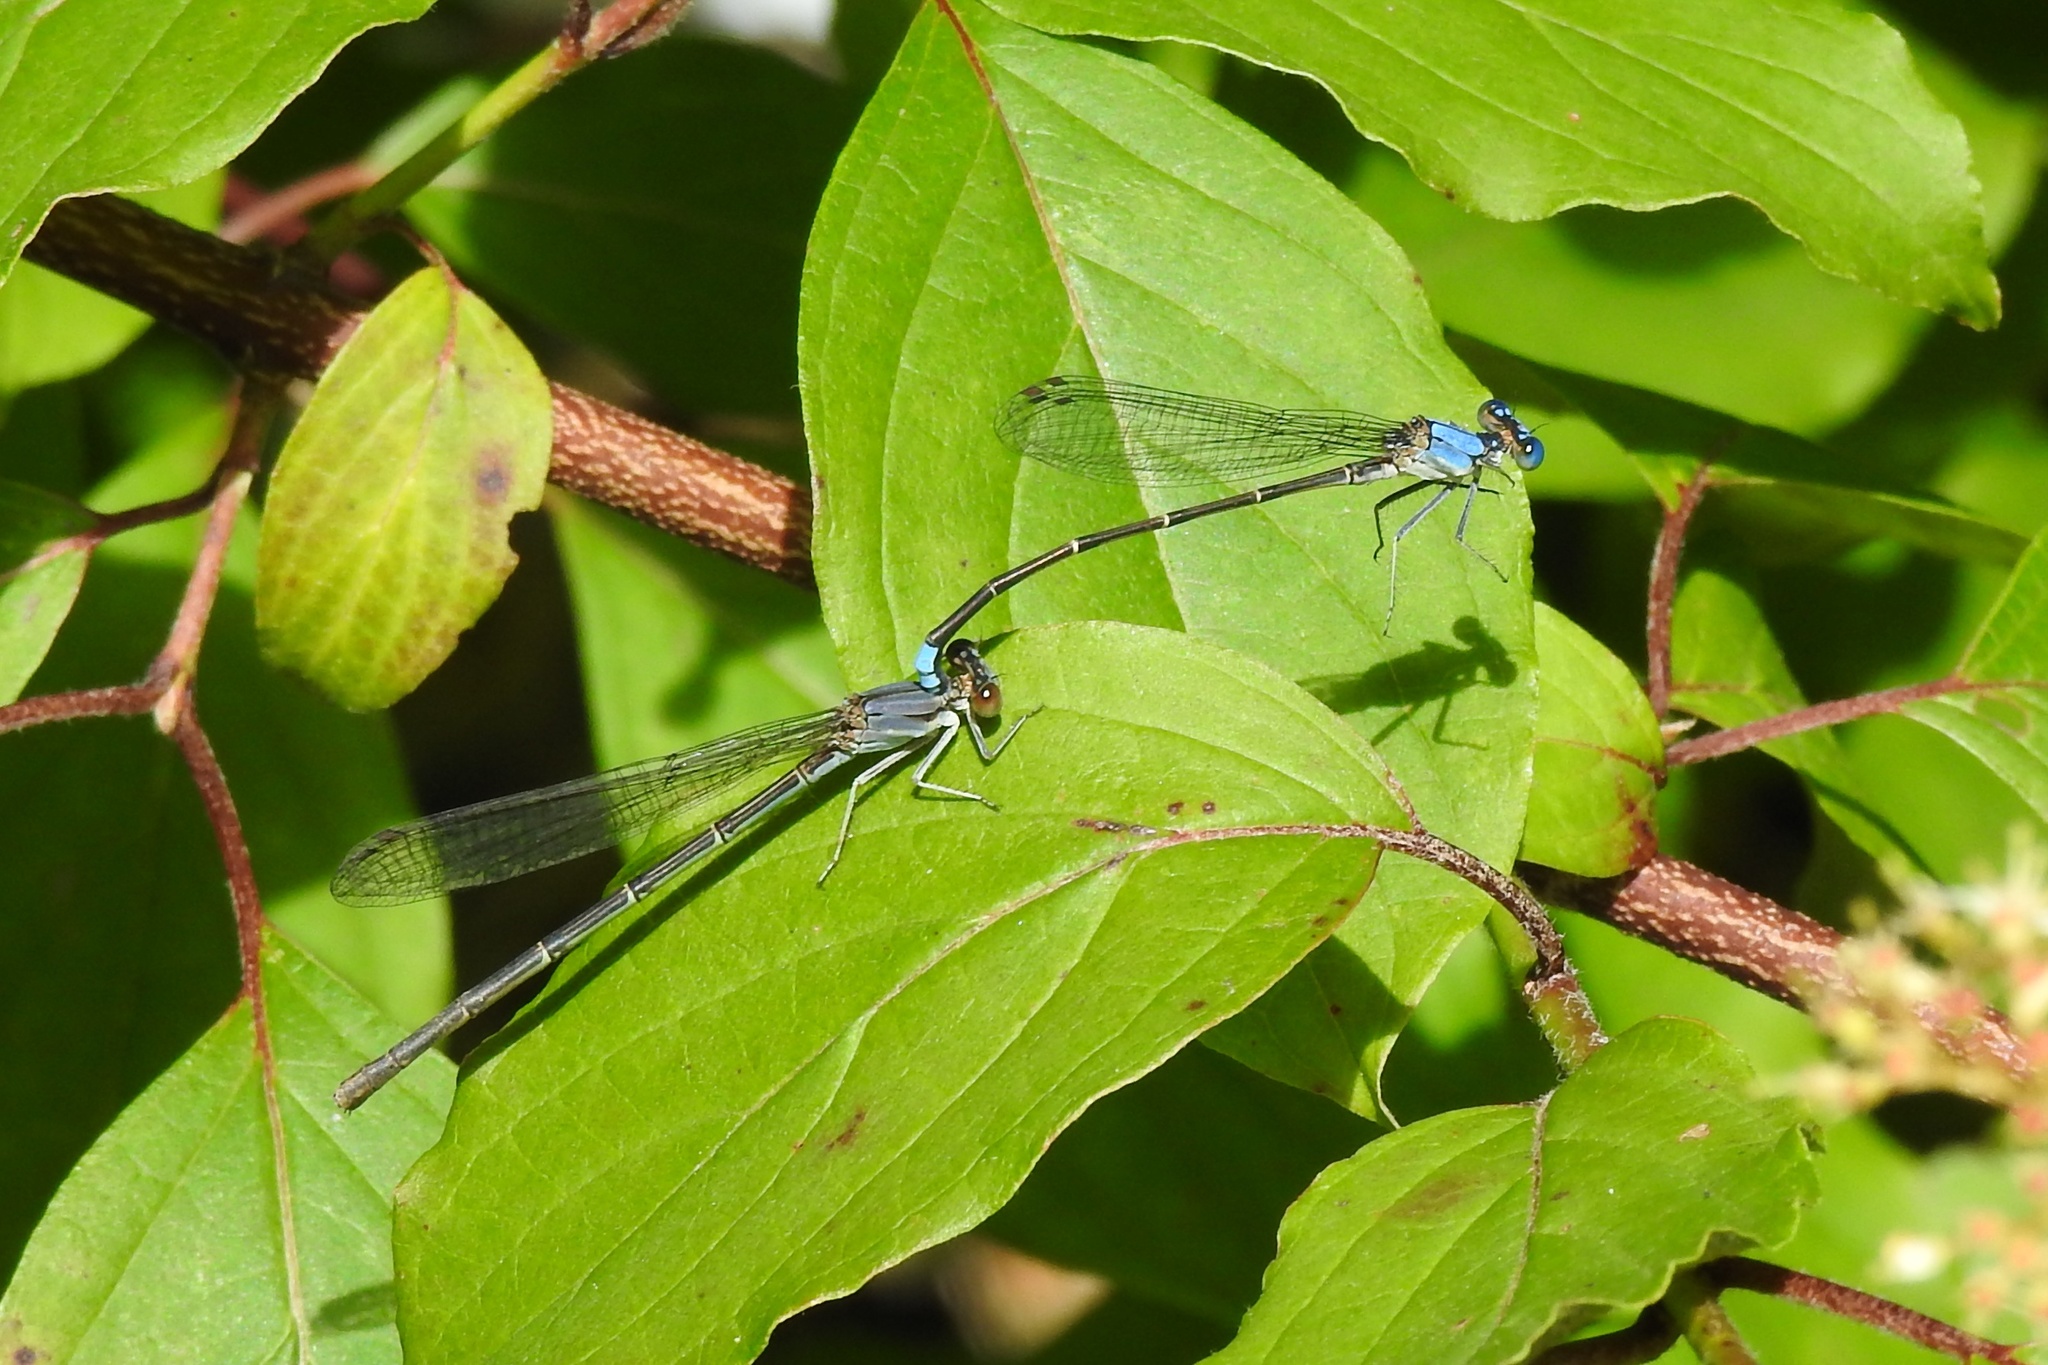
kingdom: Animalia
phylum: Arthropoda
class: Insecta
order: Odonata
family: Coenagrionidae
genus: Argia
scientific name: Argia apicalis
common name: Blue-fronted dancer
